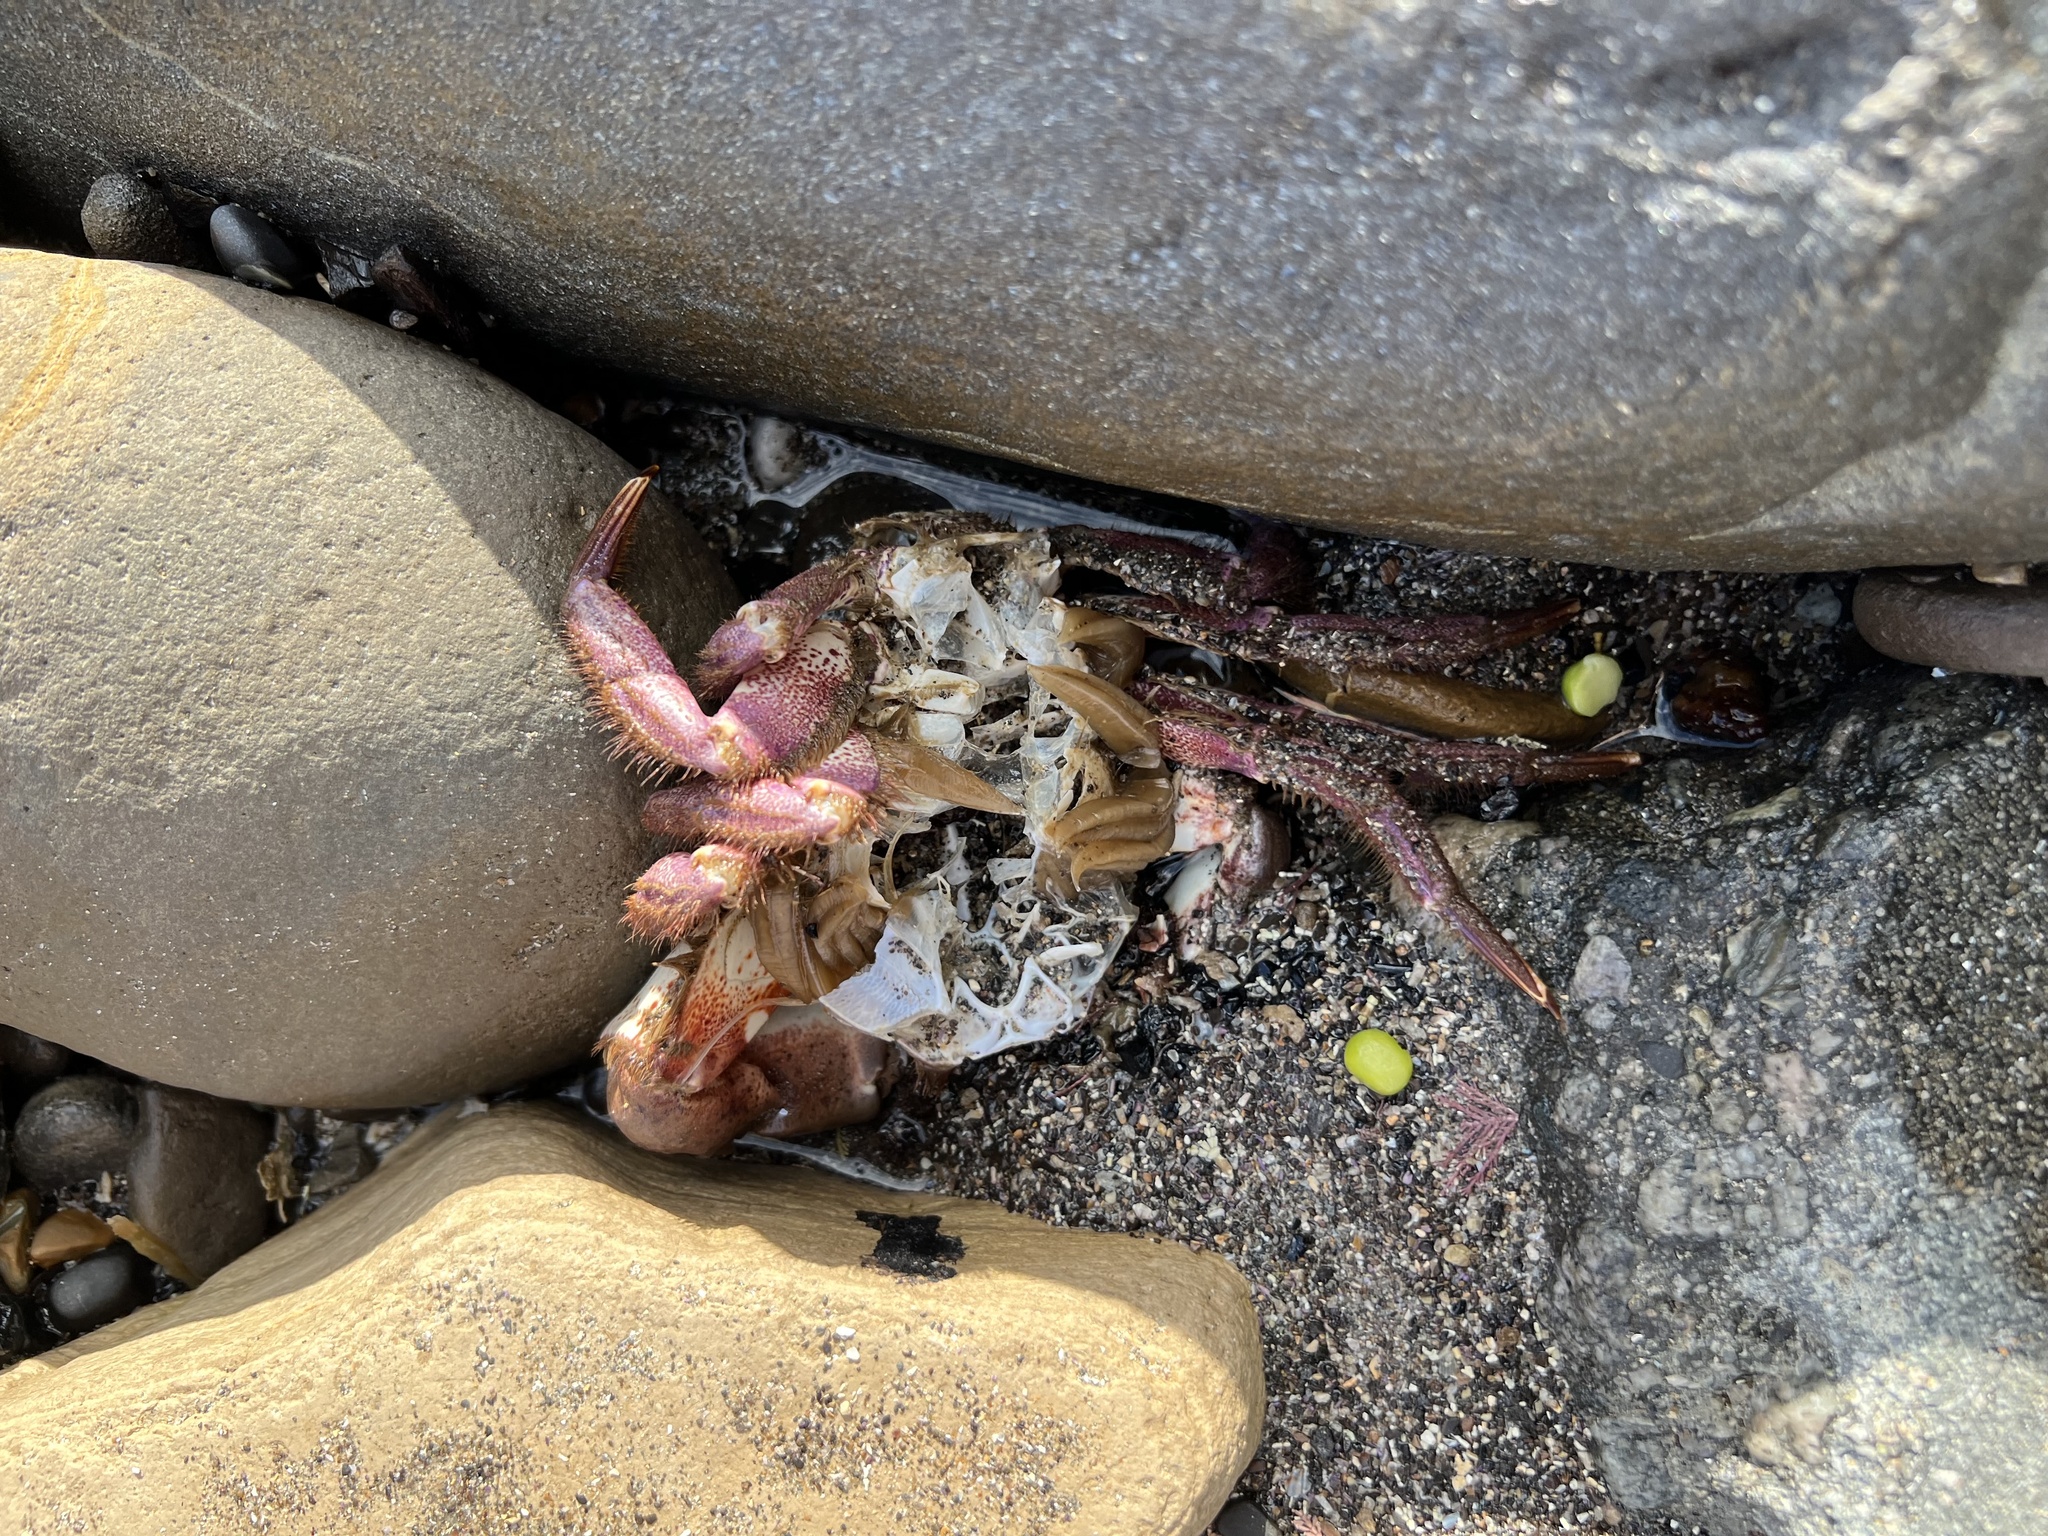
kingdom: Animalia
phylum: Arthropoda
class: Malacostraca
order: Decapoda
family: Cancridae
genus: Romaleon
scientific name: Romaleon antennarium
